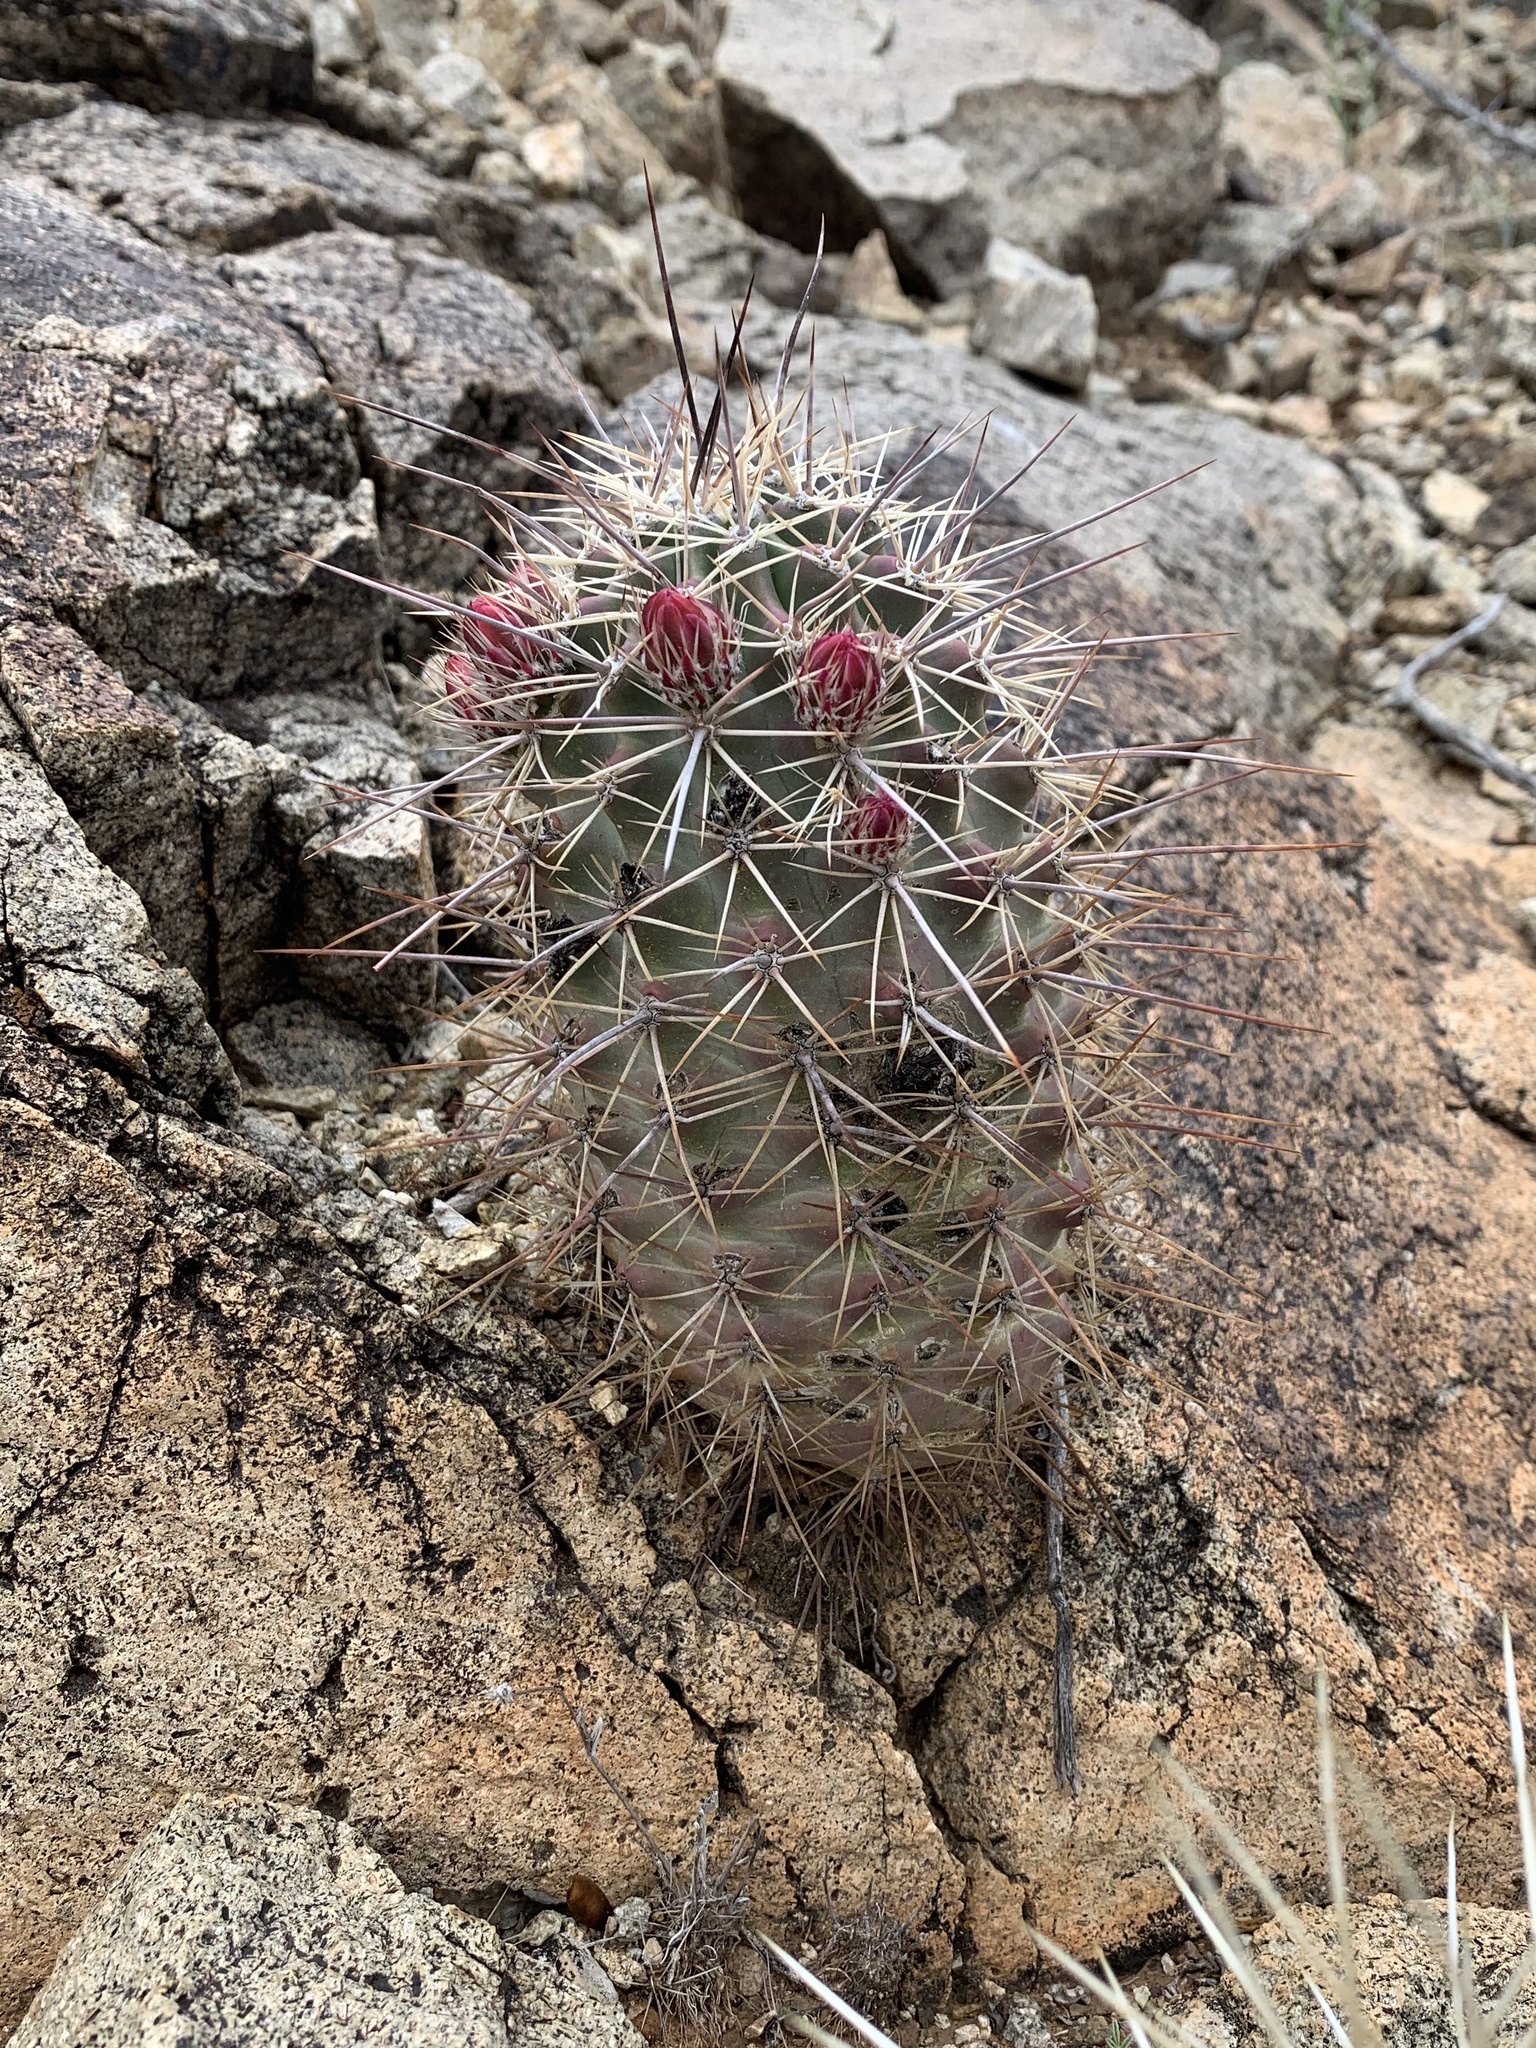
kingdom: Plantae
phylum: Tracheophyta
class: Magnoliopsida
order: Caryophyllales
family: Cactaceae
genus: Echinocereus
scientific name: Echinocereus coccineus
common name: Scarlet hedgehog cactus
